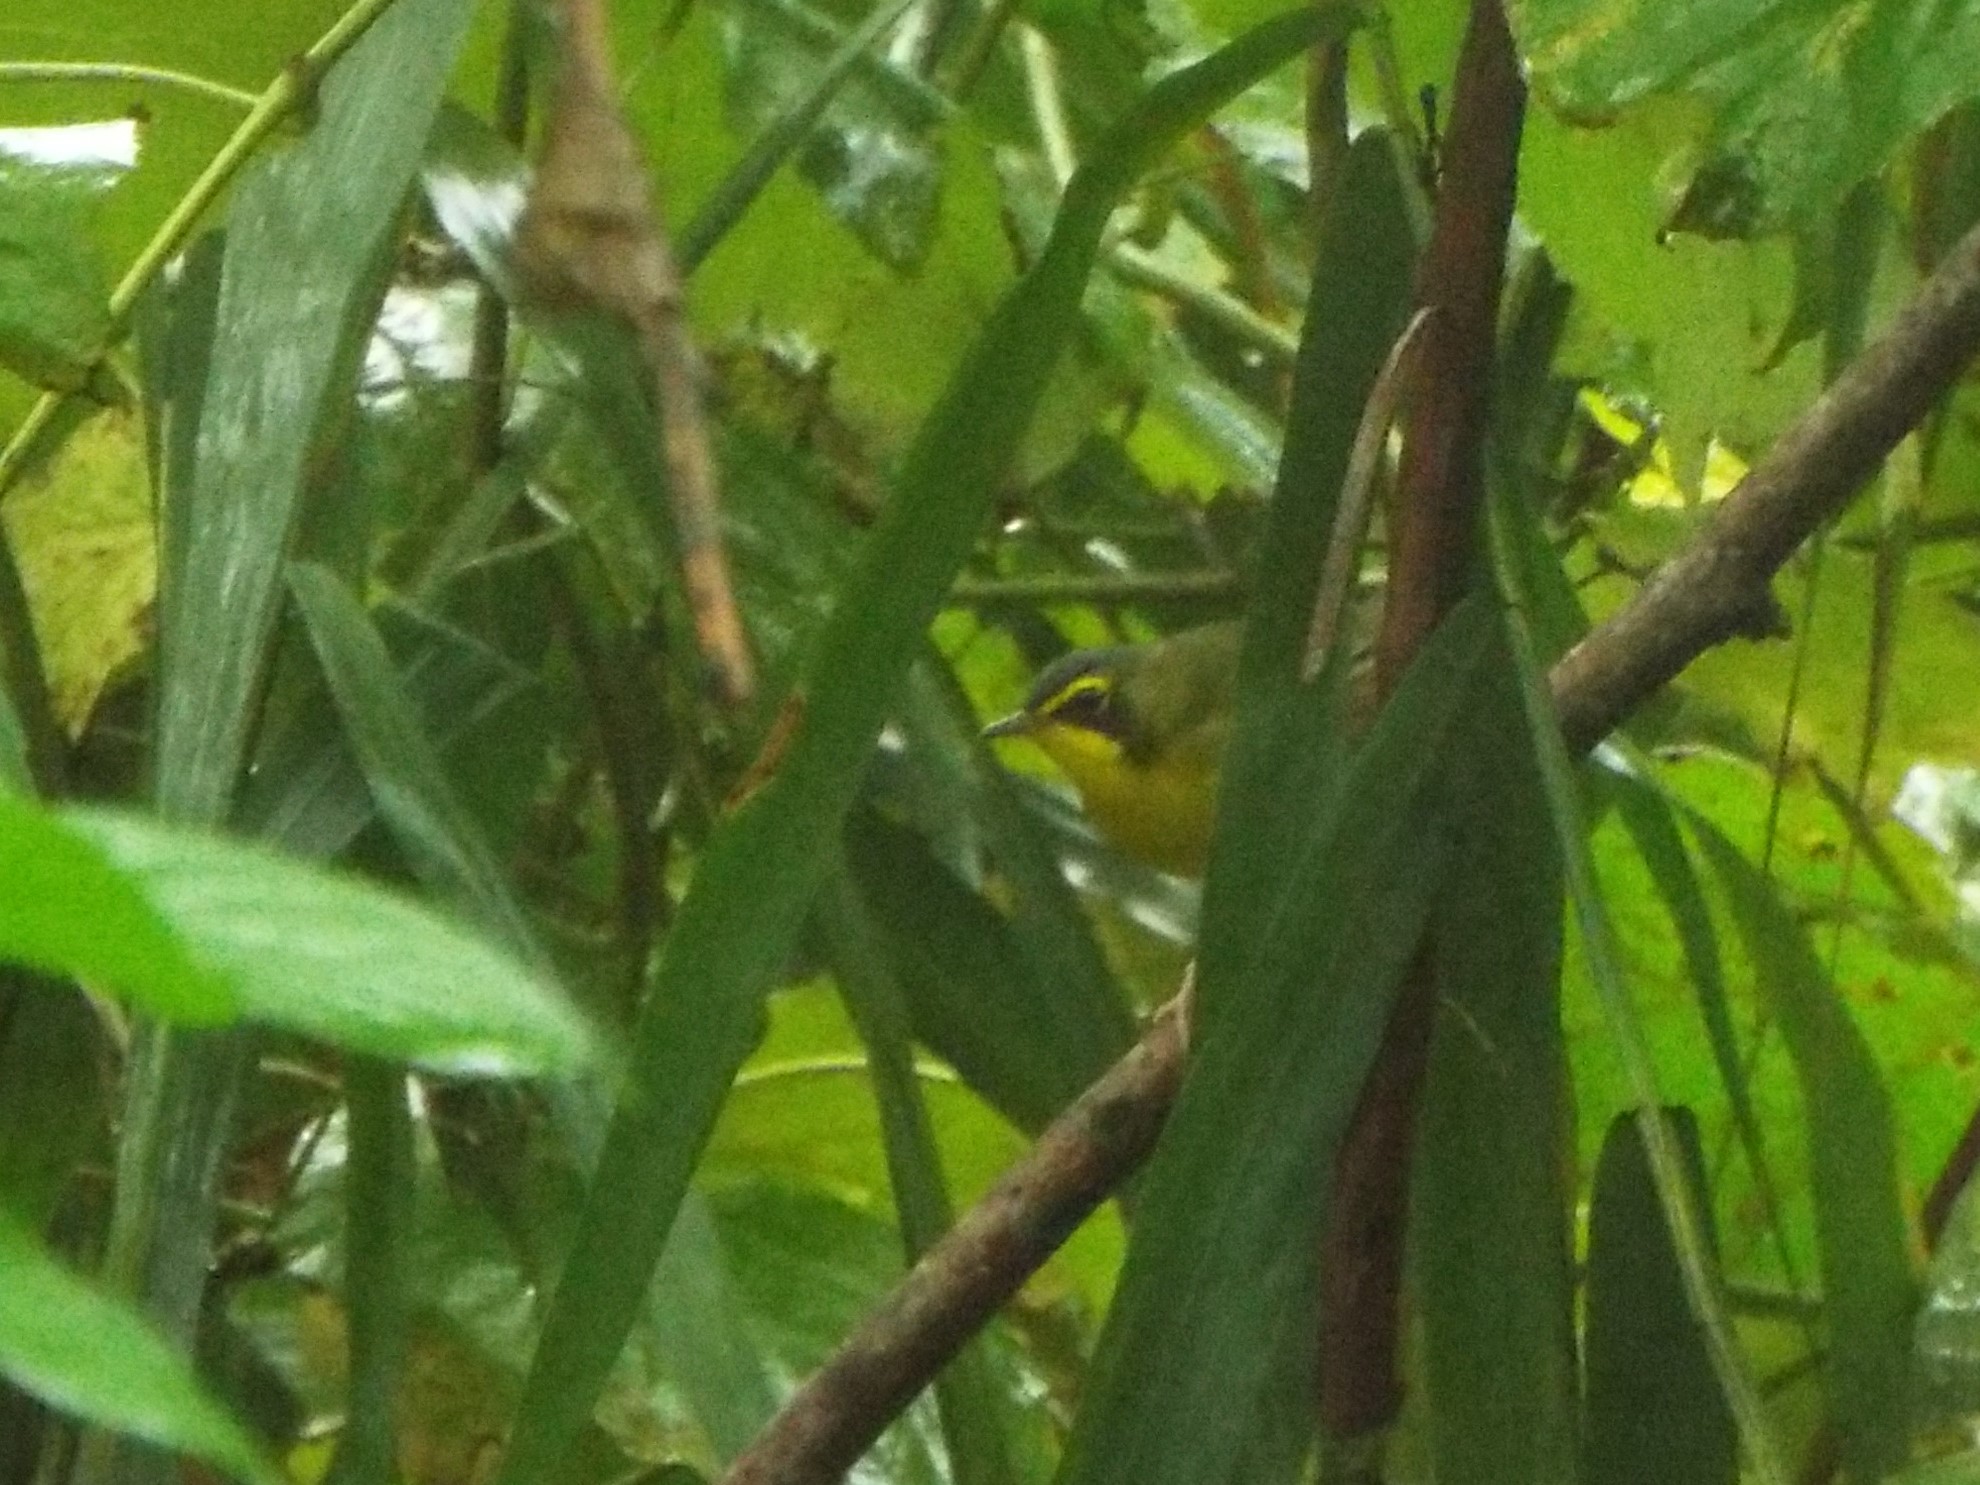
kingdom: Animalia
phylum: Chordata
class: Aves
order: Passeriformes
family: Parulidae
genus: Geothlypis
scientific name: Geothlypis formosa
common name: Kentucky warbler
